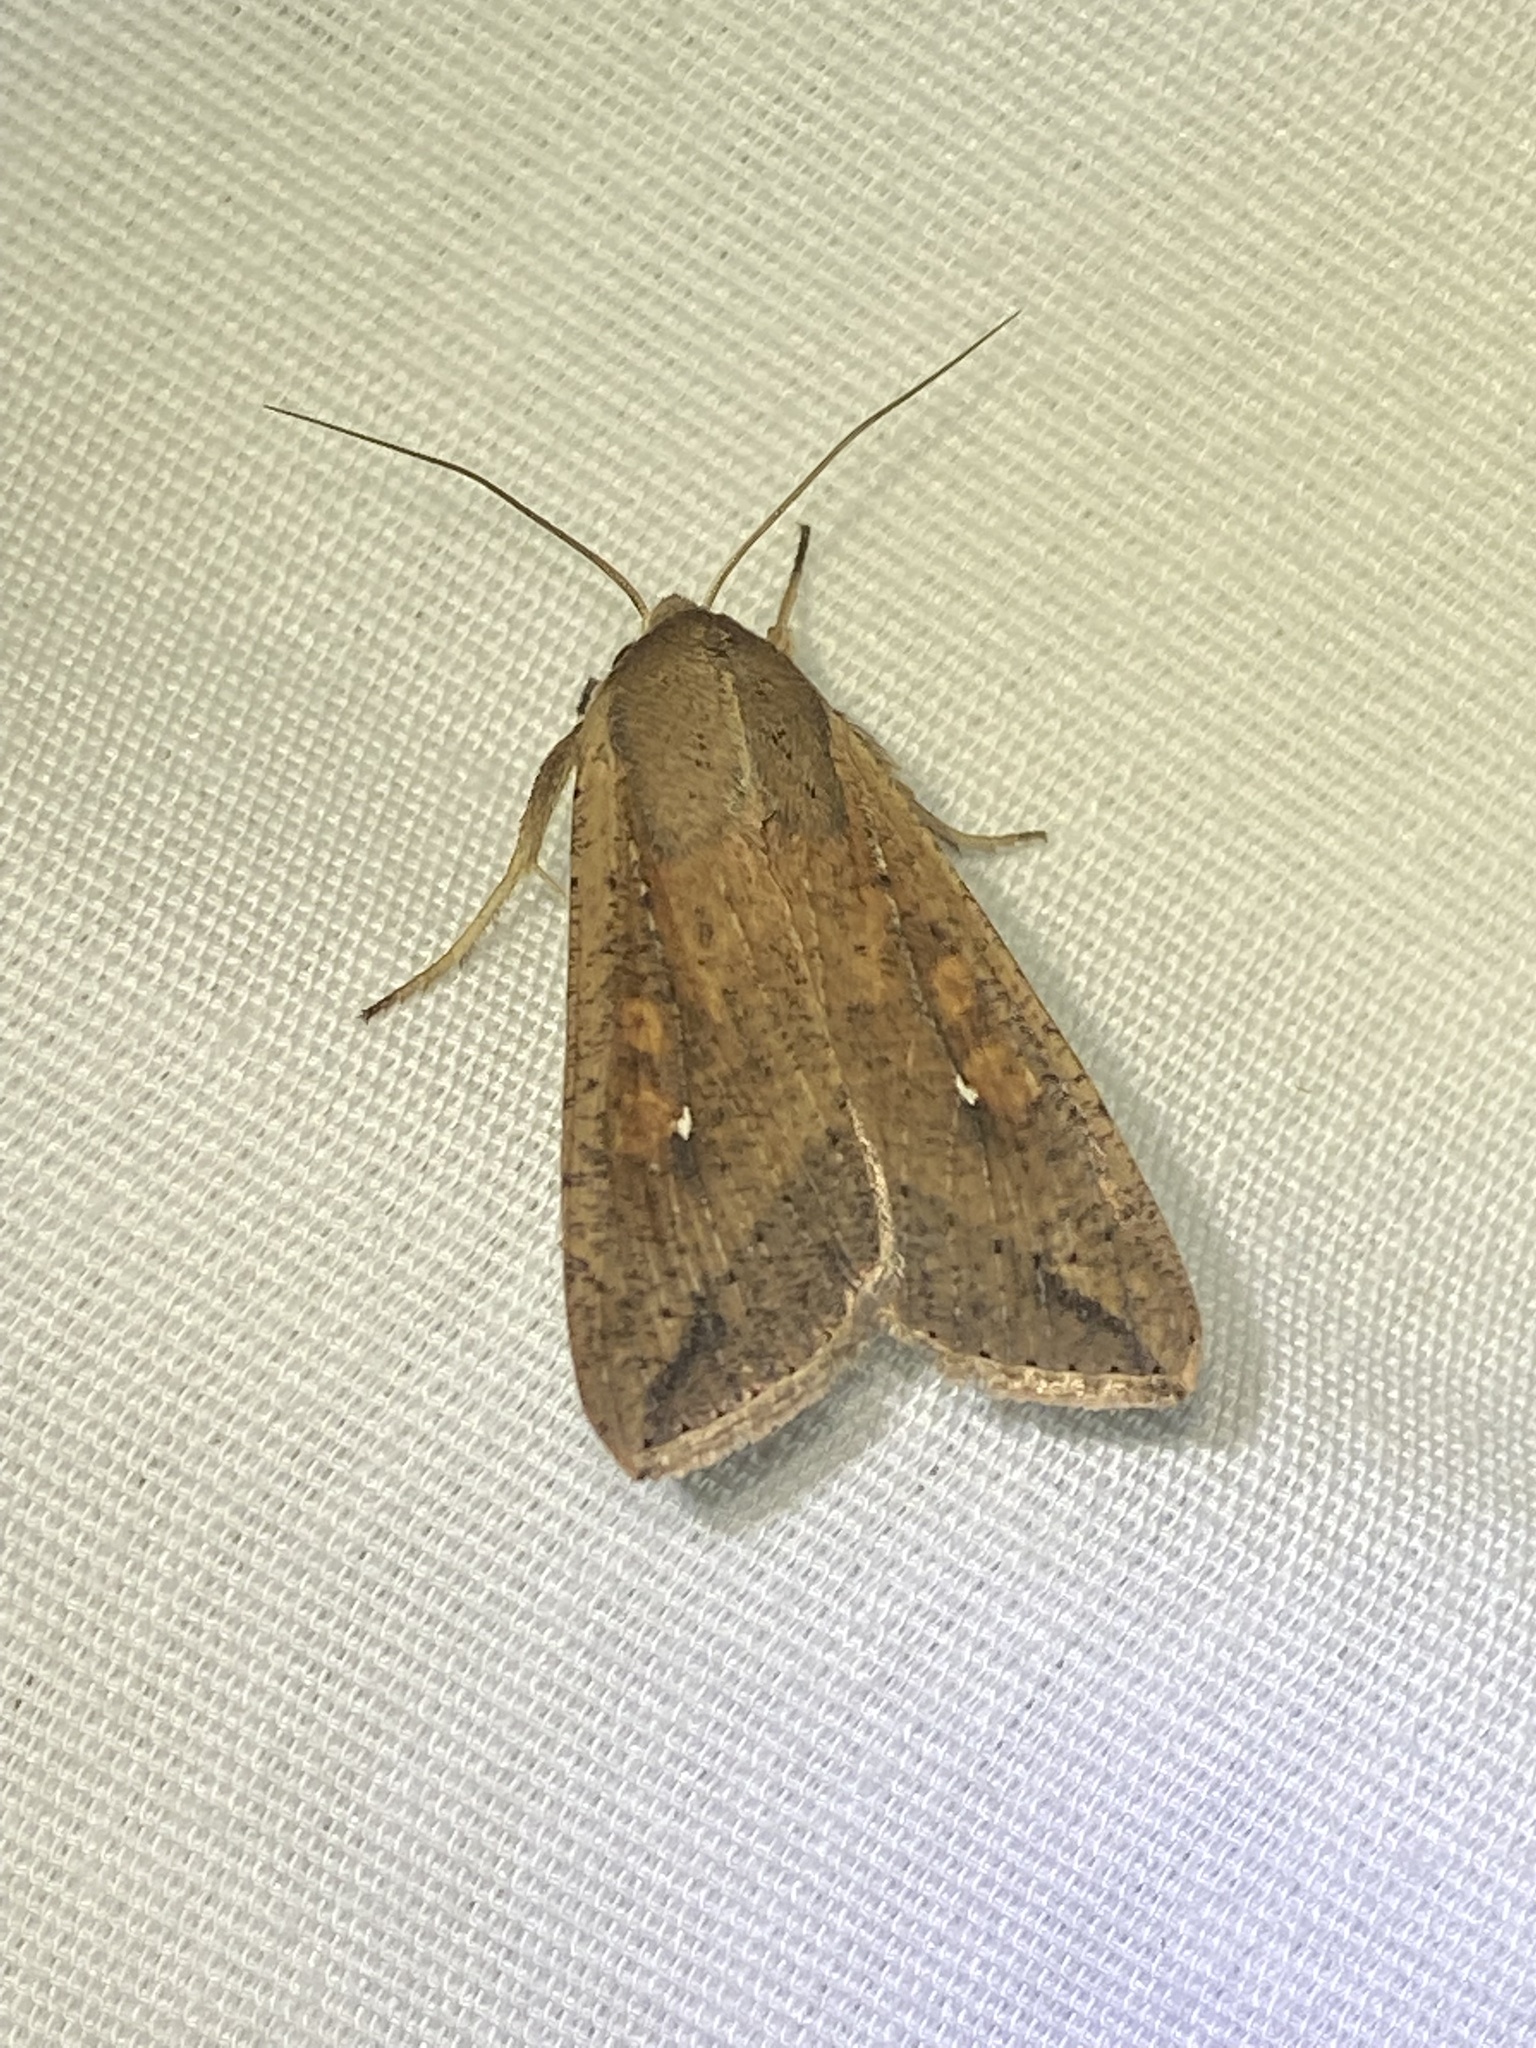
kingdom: Animalia
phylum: Arthropoda
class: Insecta
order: Lepidoptera
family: Noctuidae
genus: Mythimna
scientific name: Mythimna unipuncta
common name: White-speck
